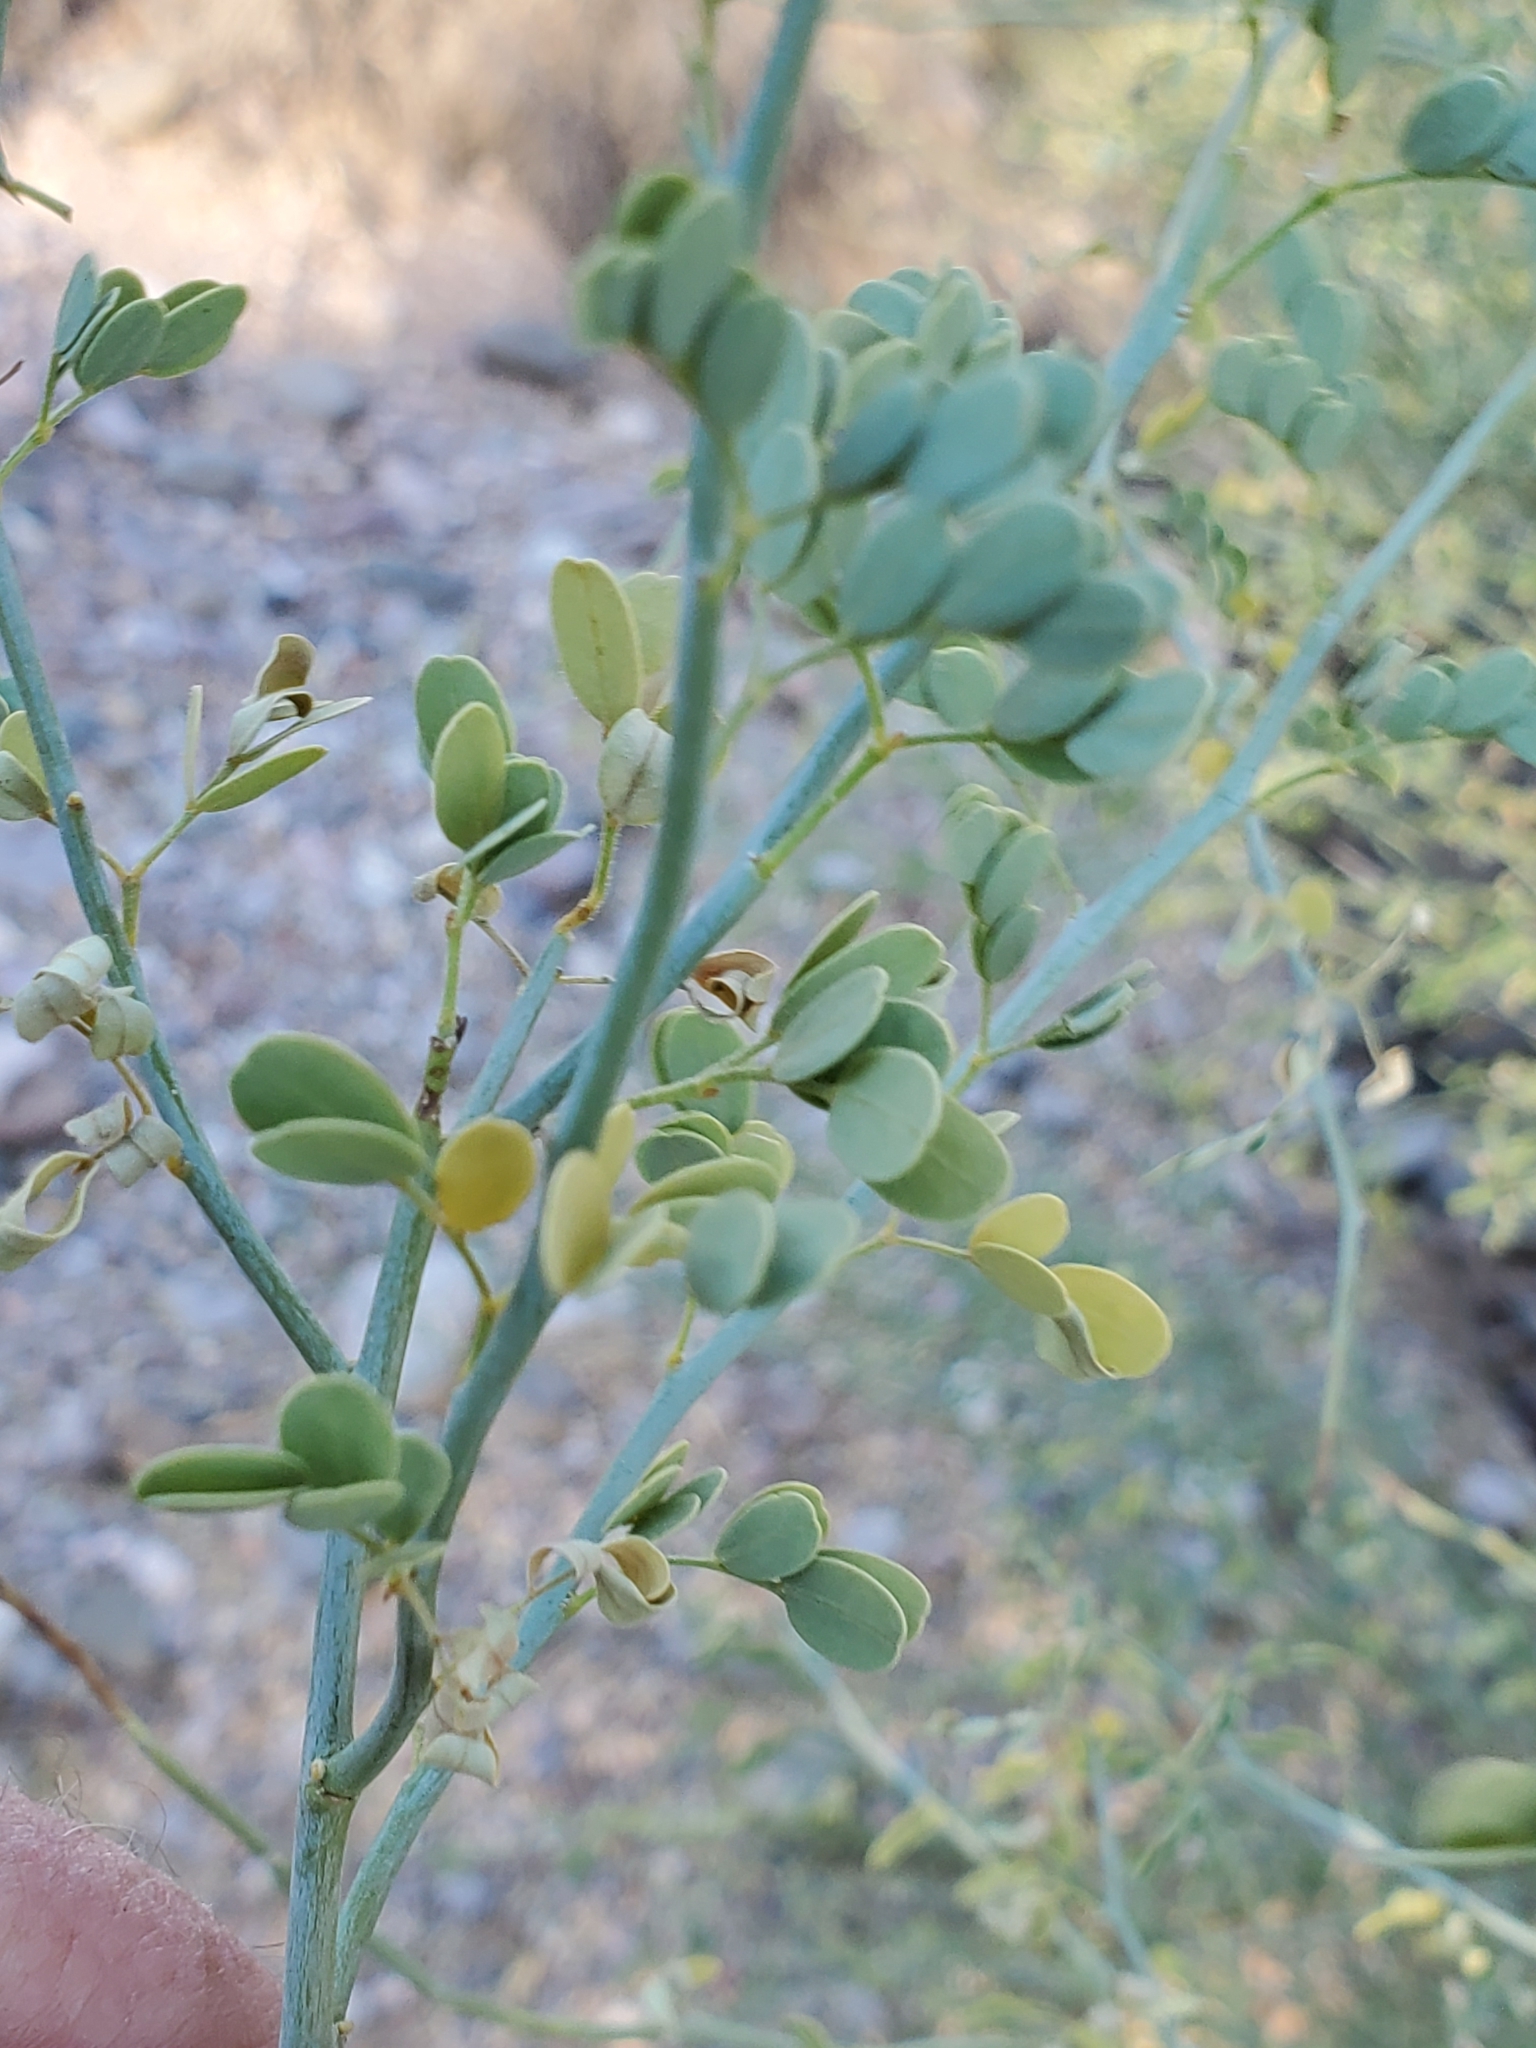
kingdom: Plantae
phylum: Tracheophyta
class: Magnoliopsida
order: Fabales
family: Fabaceae
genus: Parkinsonia
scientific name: Parkinsonia florida
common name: Blue paloverde
